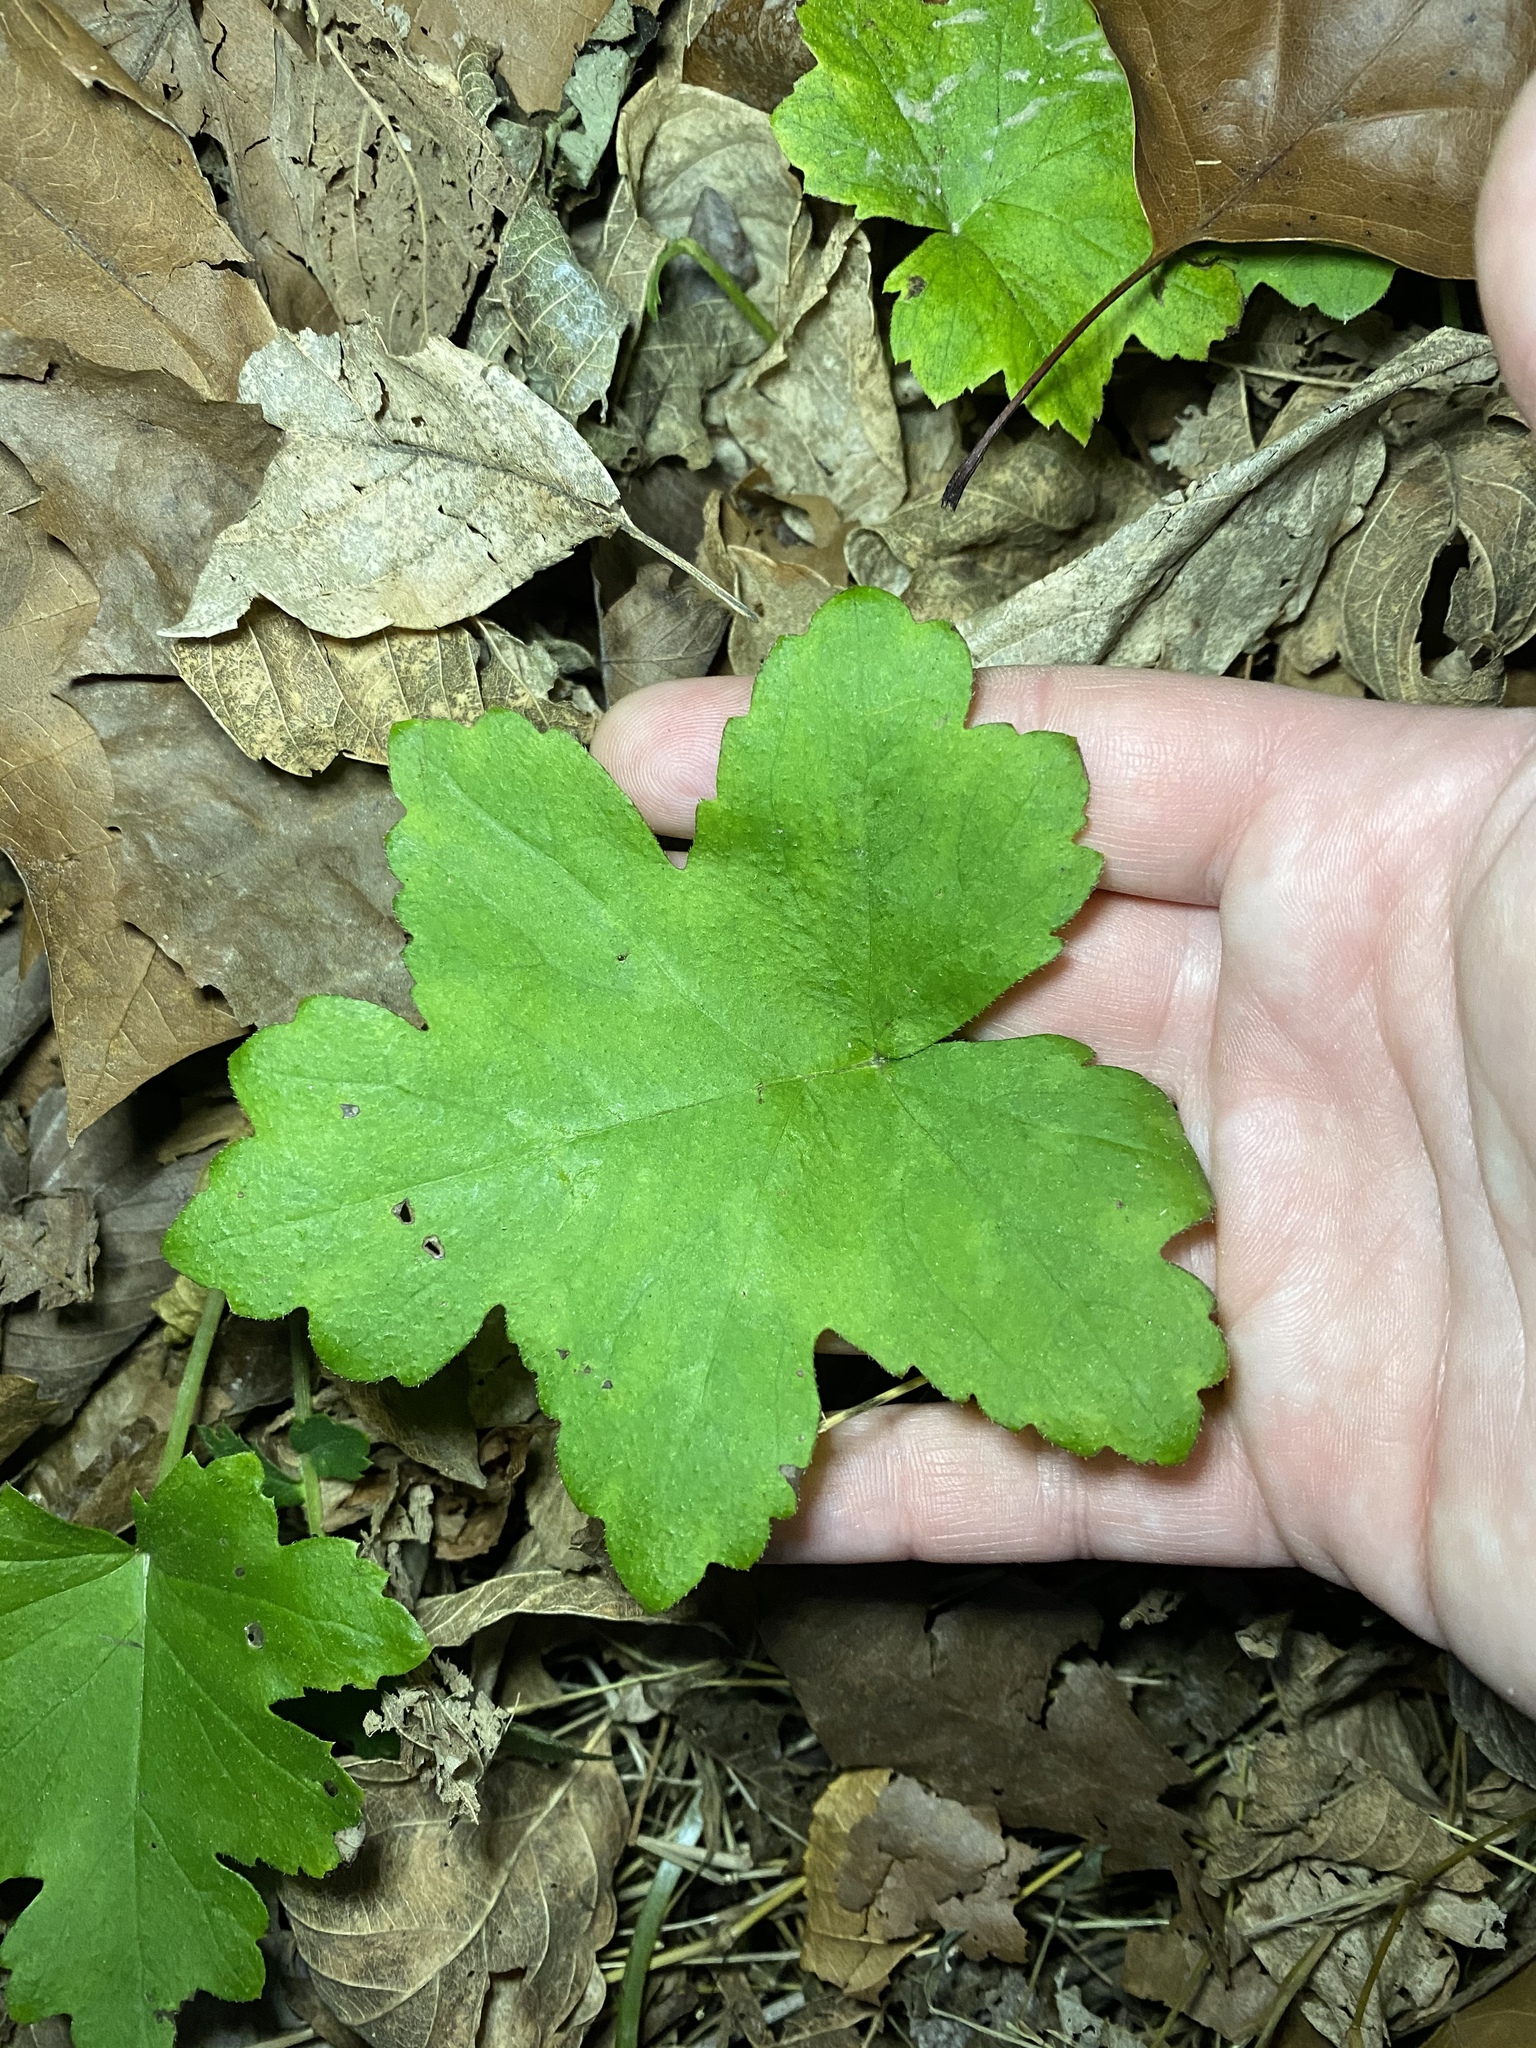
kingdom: Plantae
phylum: Tracheophyta
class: Magnoliopsida
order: Boraginales
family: Hydrophyllaceae
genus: Hydrophyllum
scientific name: Hydrophyllum canadense
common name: Canada waterleaf
